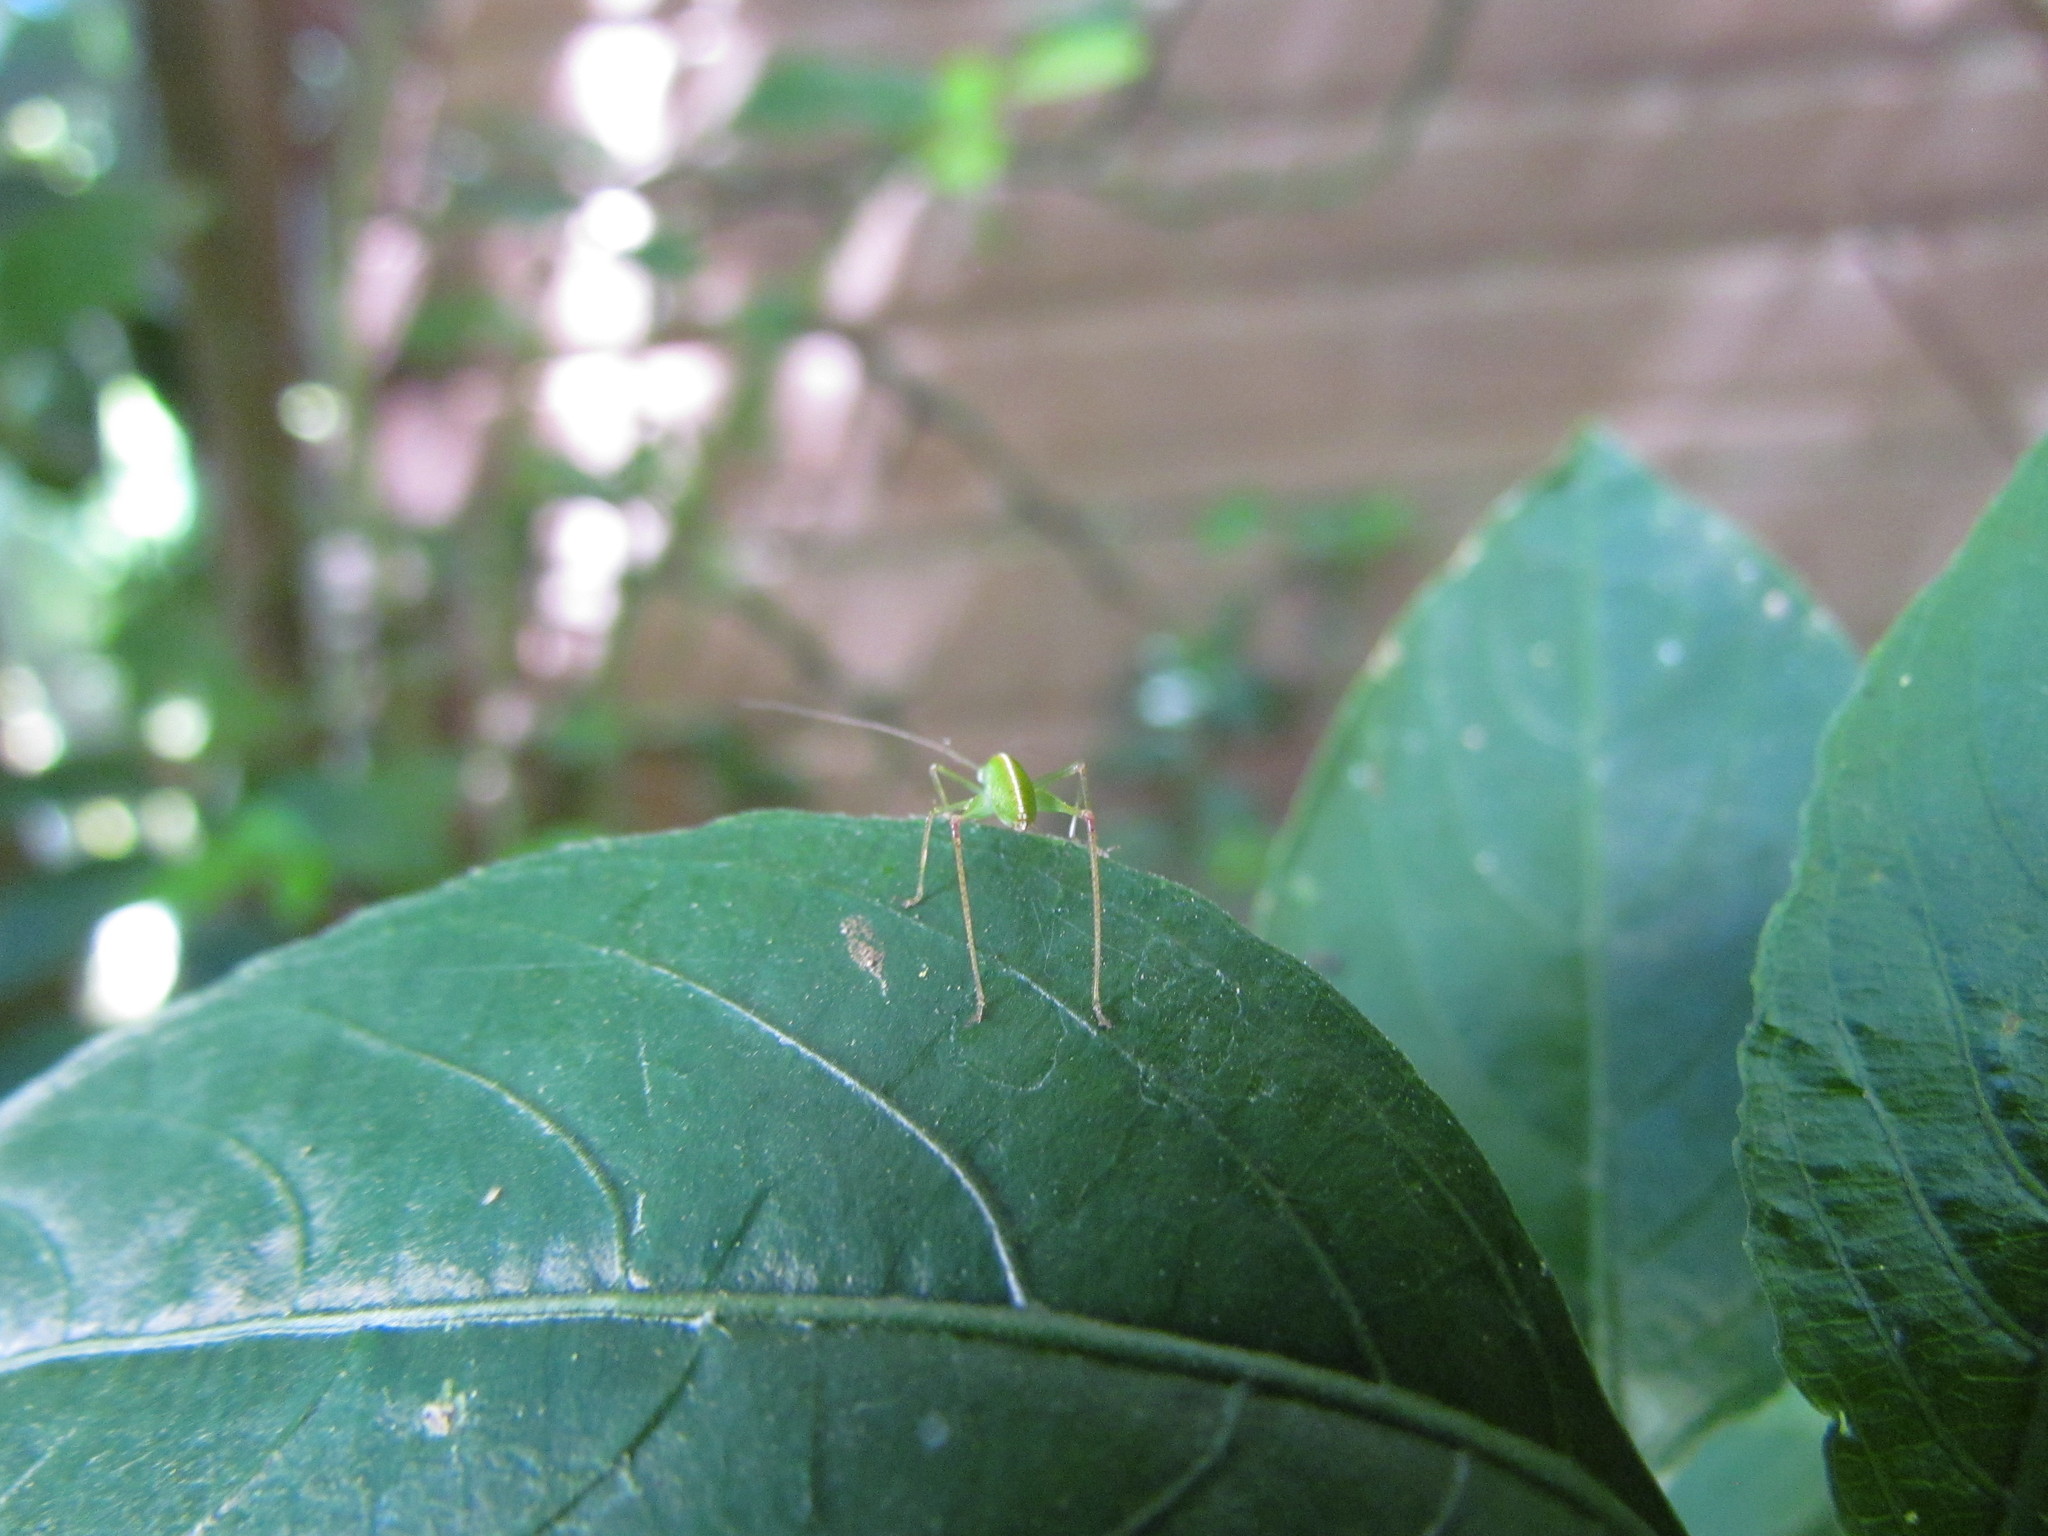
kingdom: Animalia
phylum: Arthropoda
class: Insecta
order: Orthoptera
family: Tettigoniidae
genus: Grammadera
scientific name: Grammadera clara
